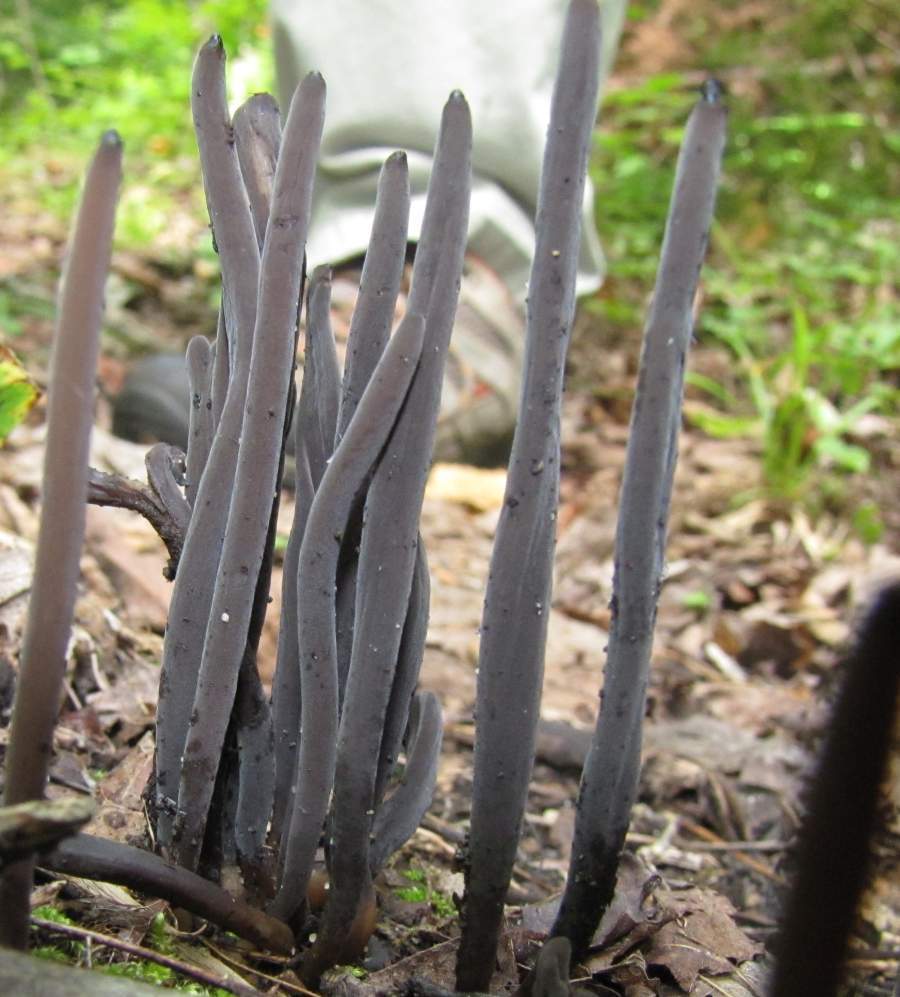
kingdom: Fungi
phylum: Basidiomycota
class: Agaricomycetes
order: Hymenochaetales
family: Rickenellaceae
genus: Alloclavaria
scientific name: Alloclavaria purpurea
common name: Purple spindles
